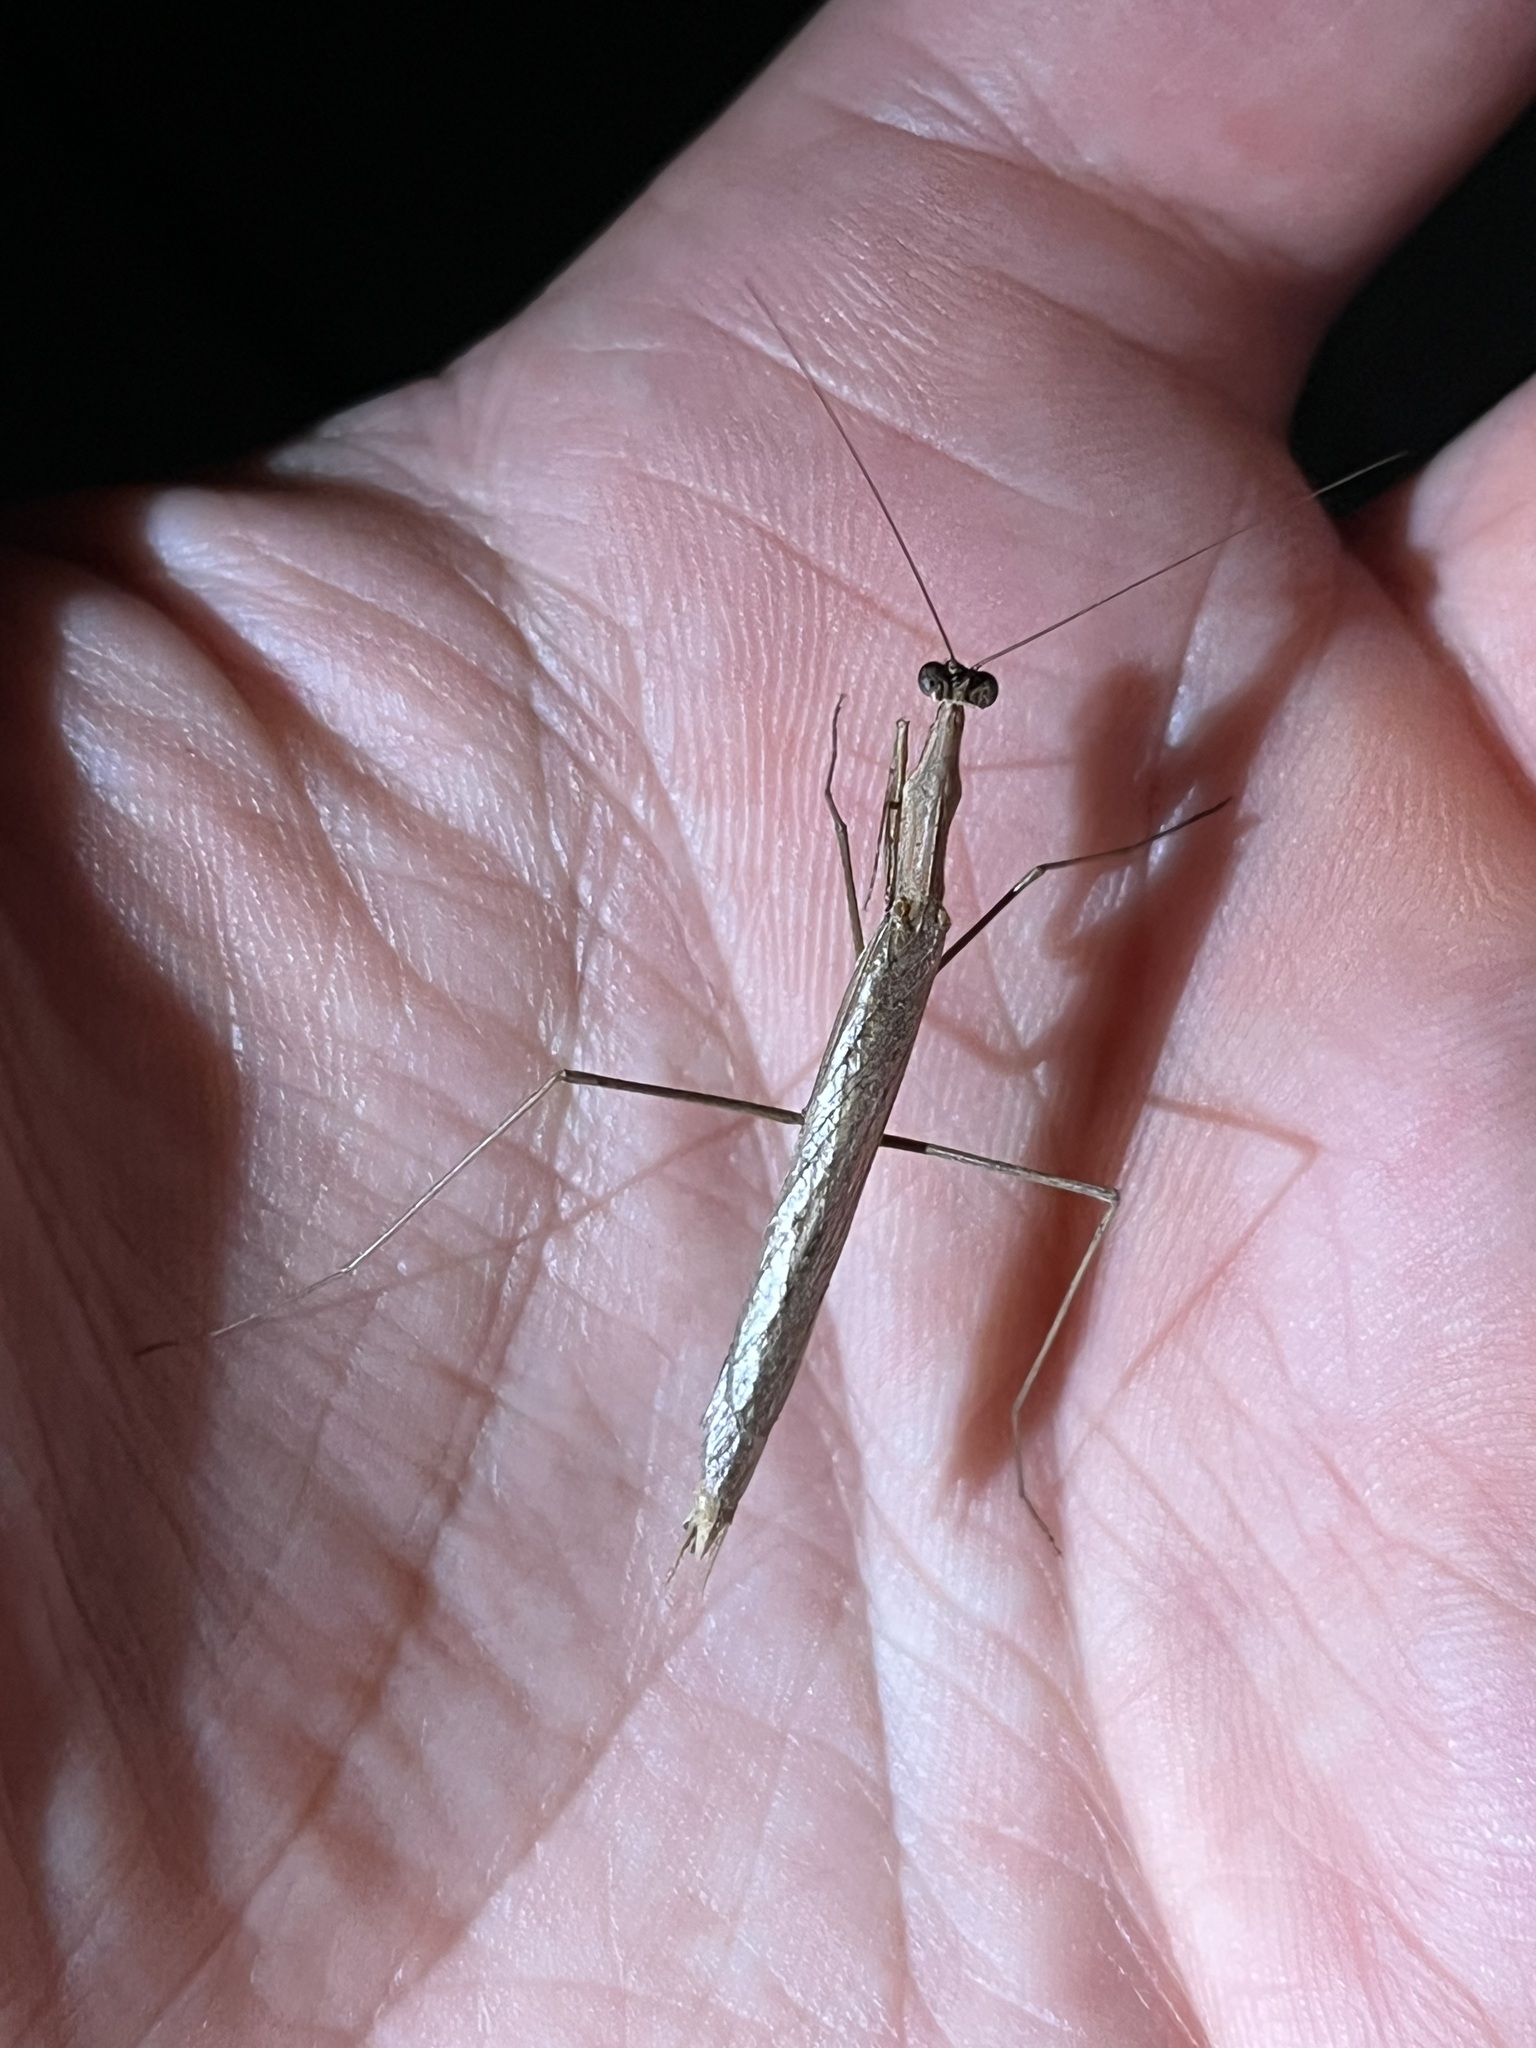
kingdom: Animalia
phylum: Arthropoda
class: Insecta
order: Mantodea
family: Thespidae
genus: Thespis
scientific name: Thespis parva
